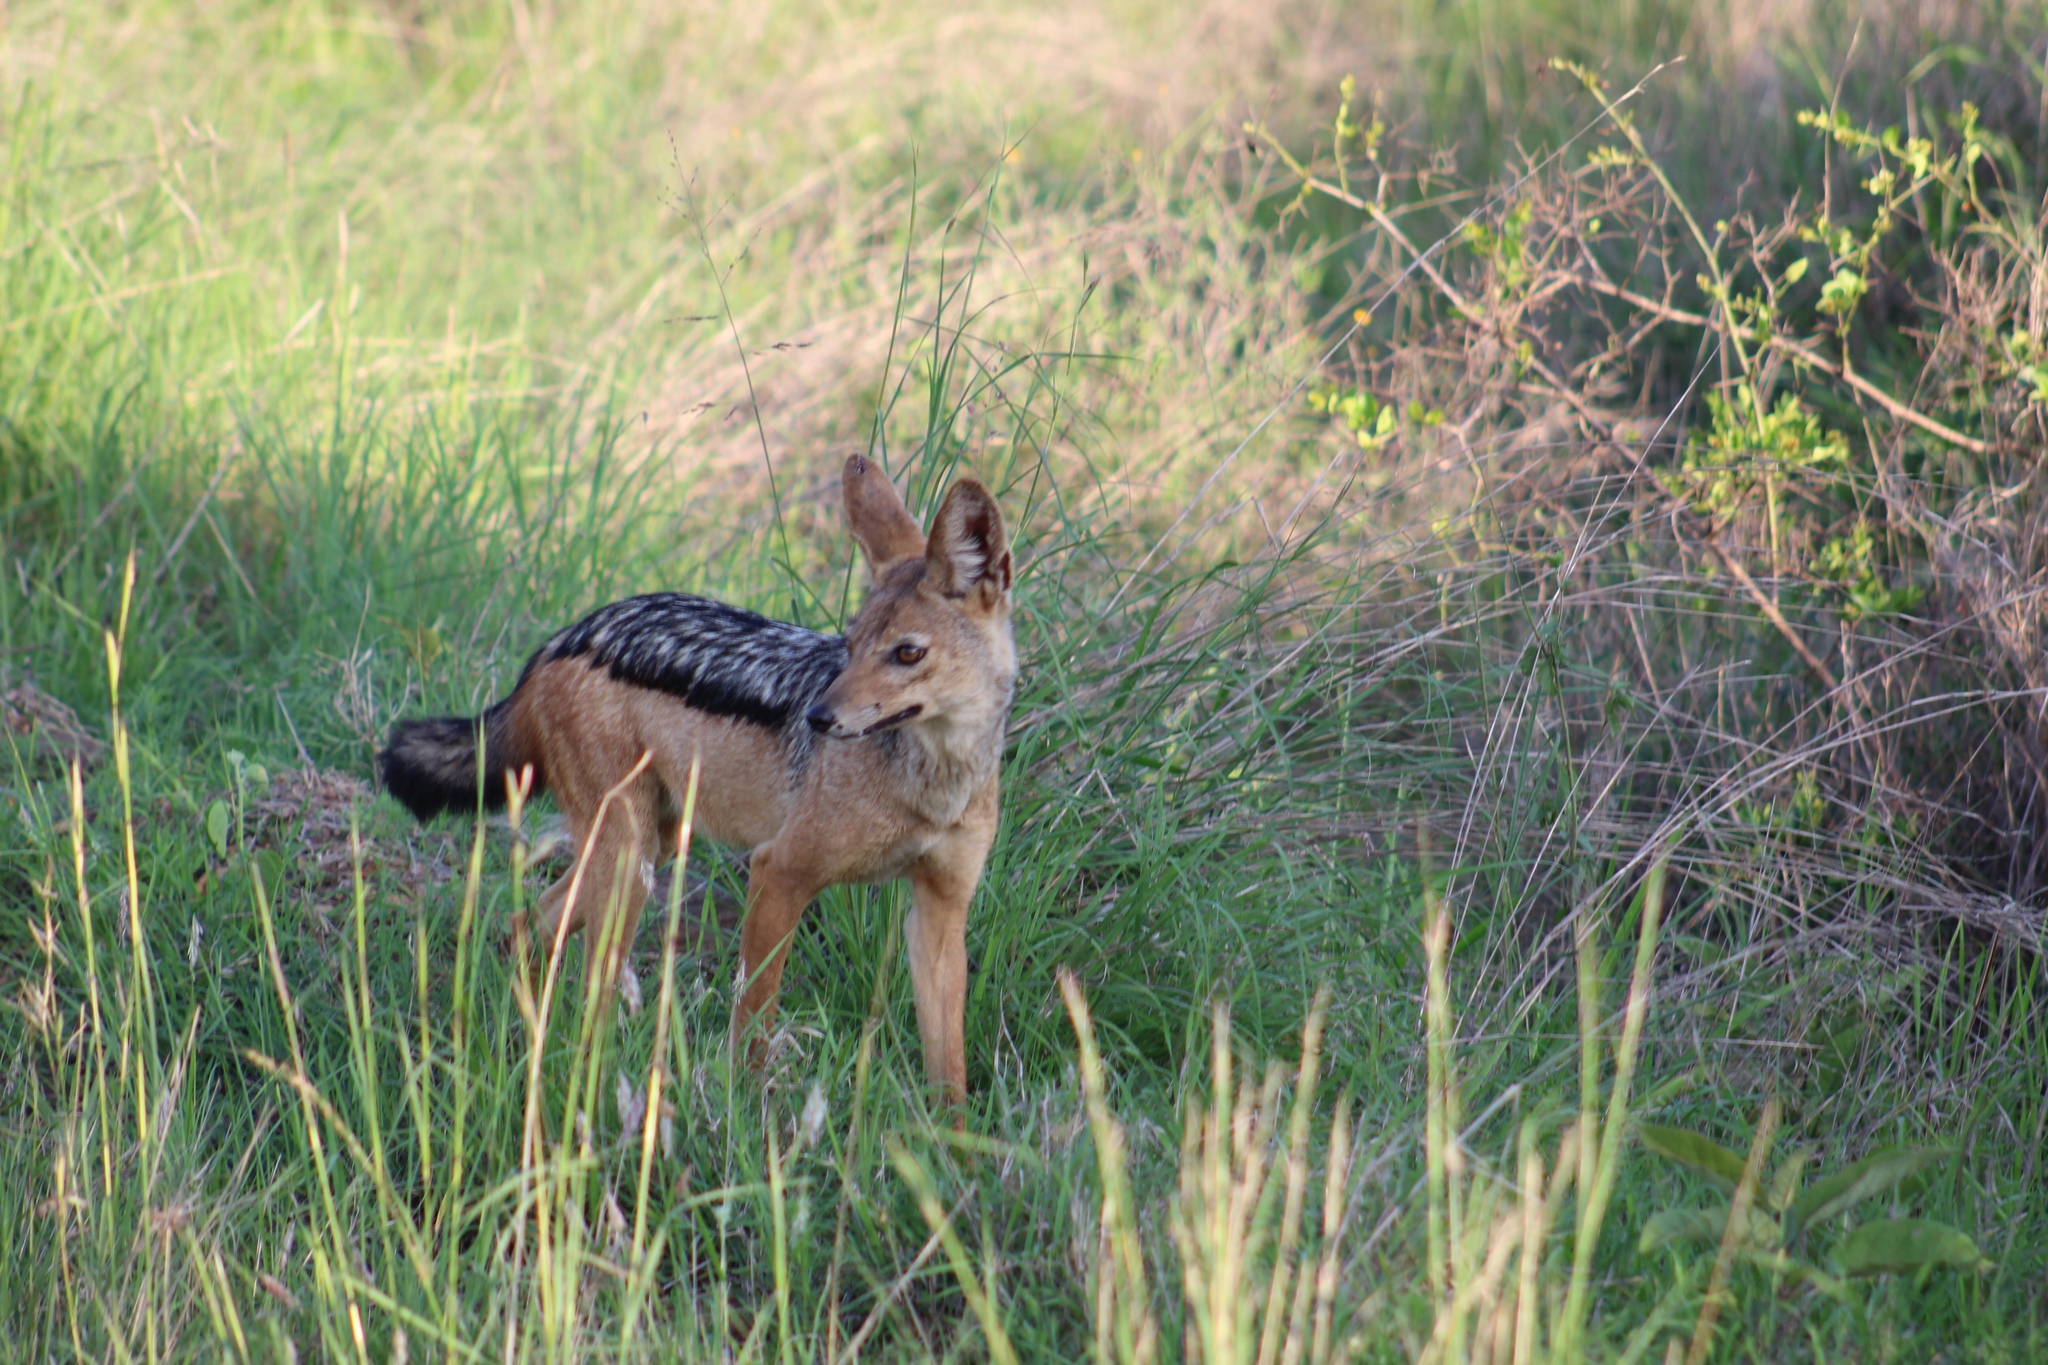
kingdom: Animalia
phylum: Chordata
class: Mammalia
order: Carnivora
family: Canidae
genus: Lupulella
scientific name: Lupulella
